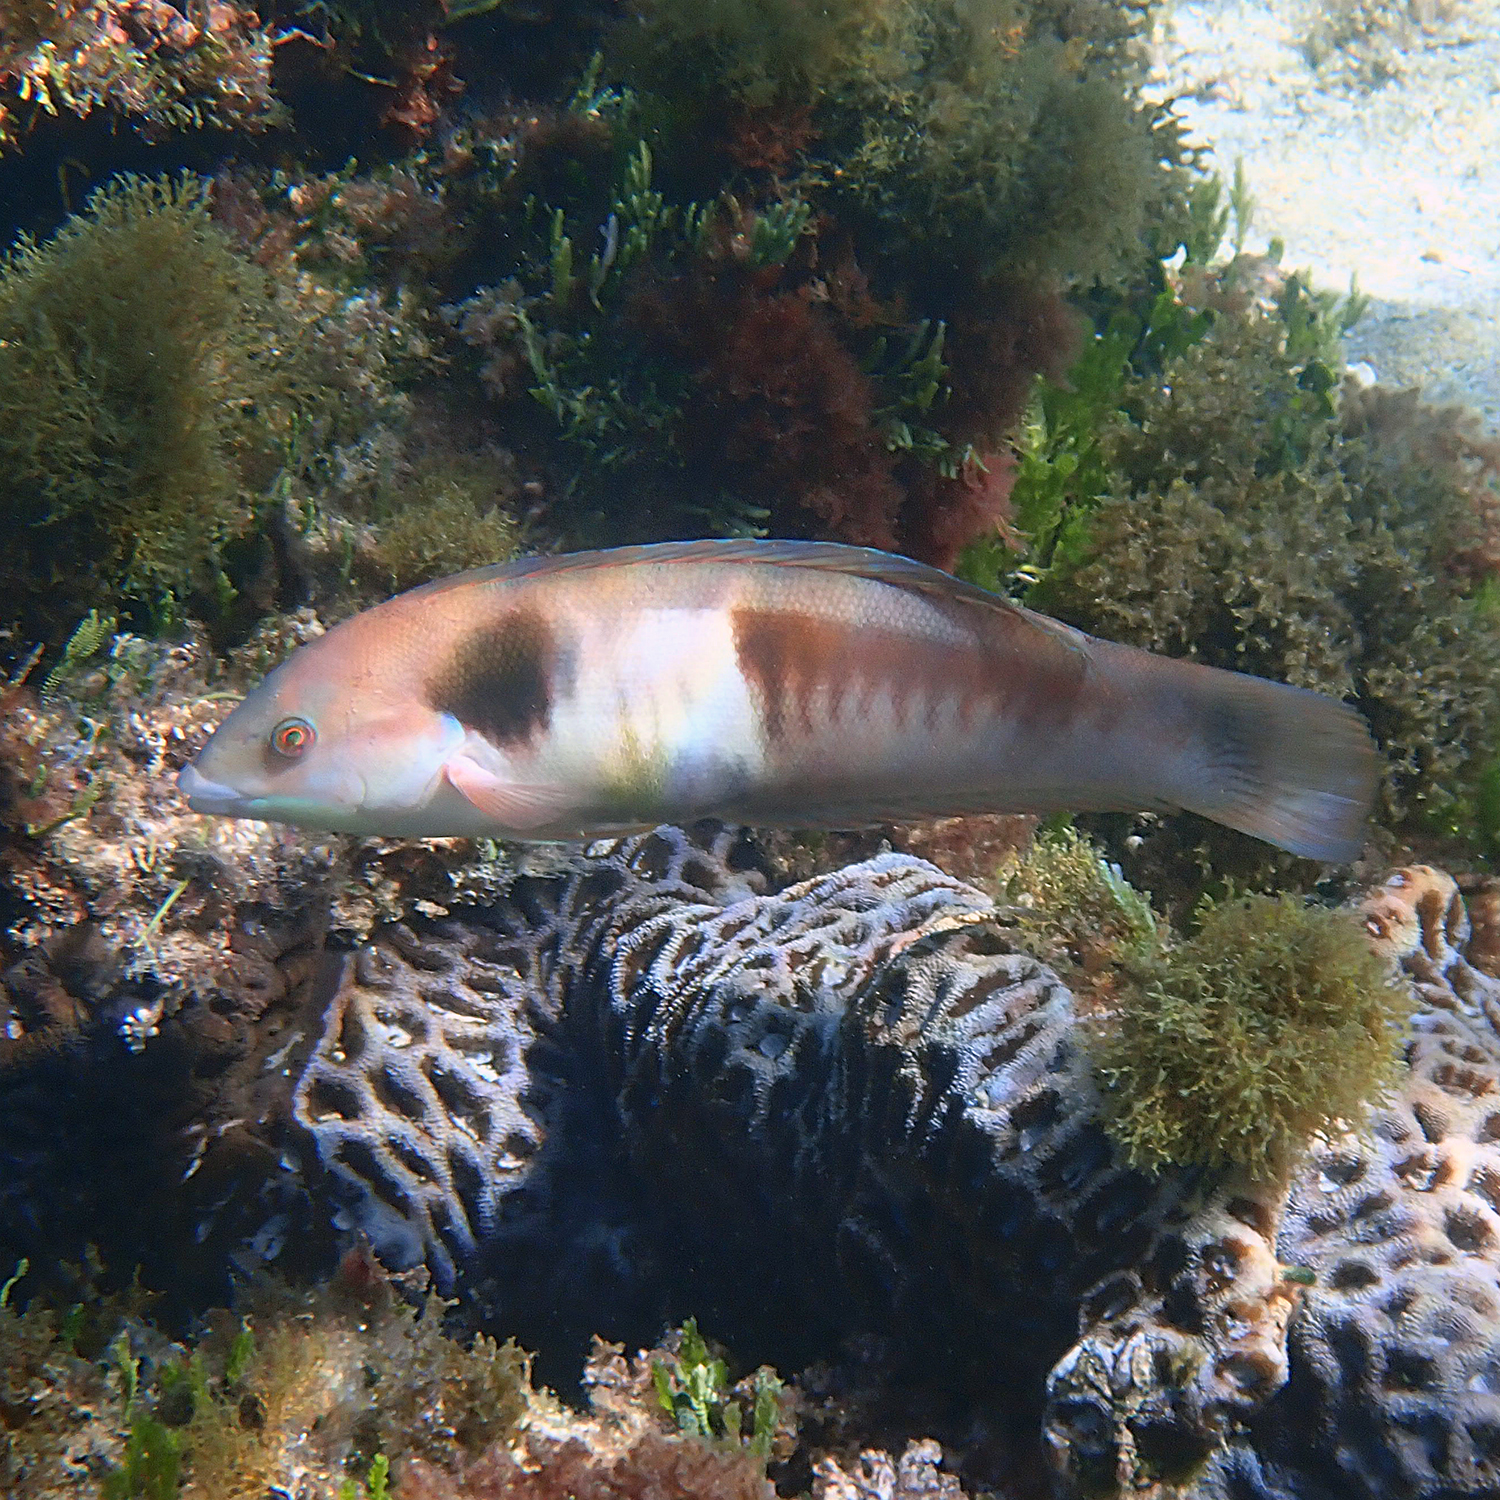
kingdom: Animalia
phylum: Chordata
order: Perciformes
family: Labridae
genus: Coris
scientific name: Coris sandeyeri
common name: Sandager's wrasse
